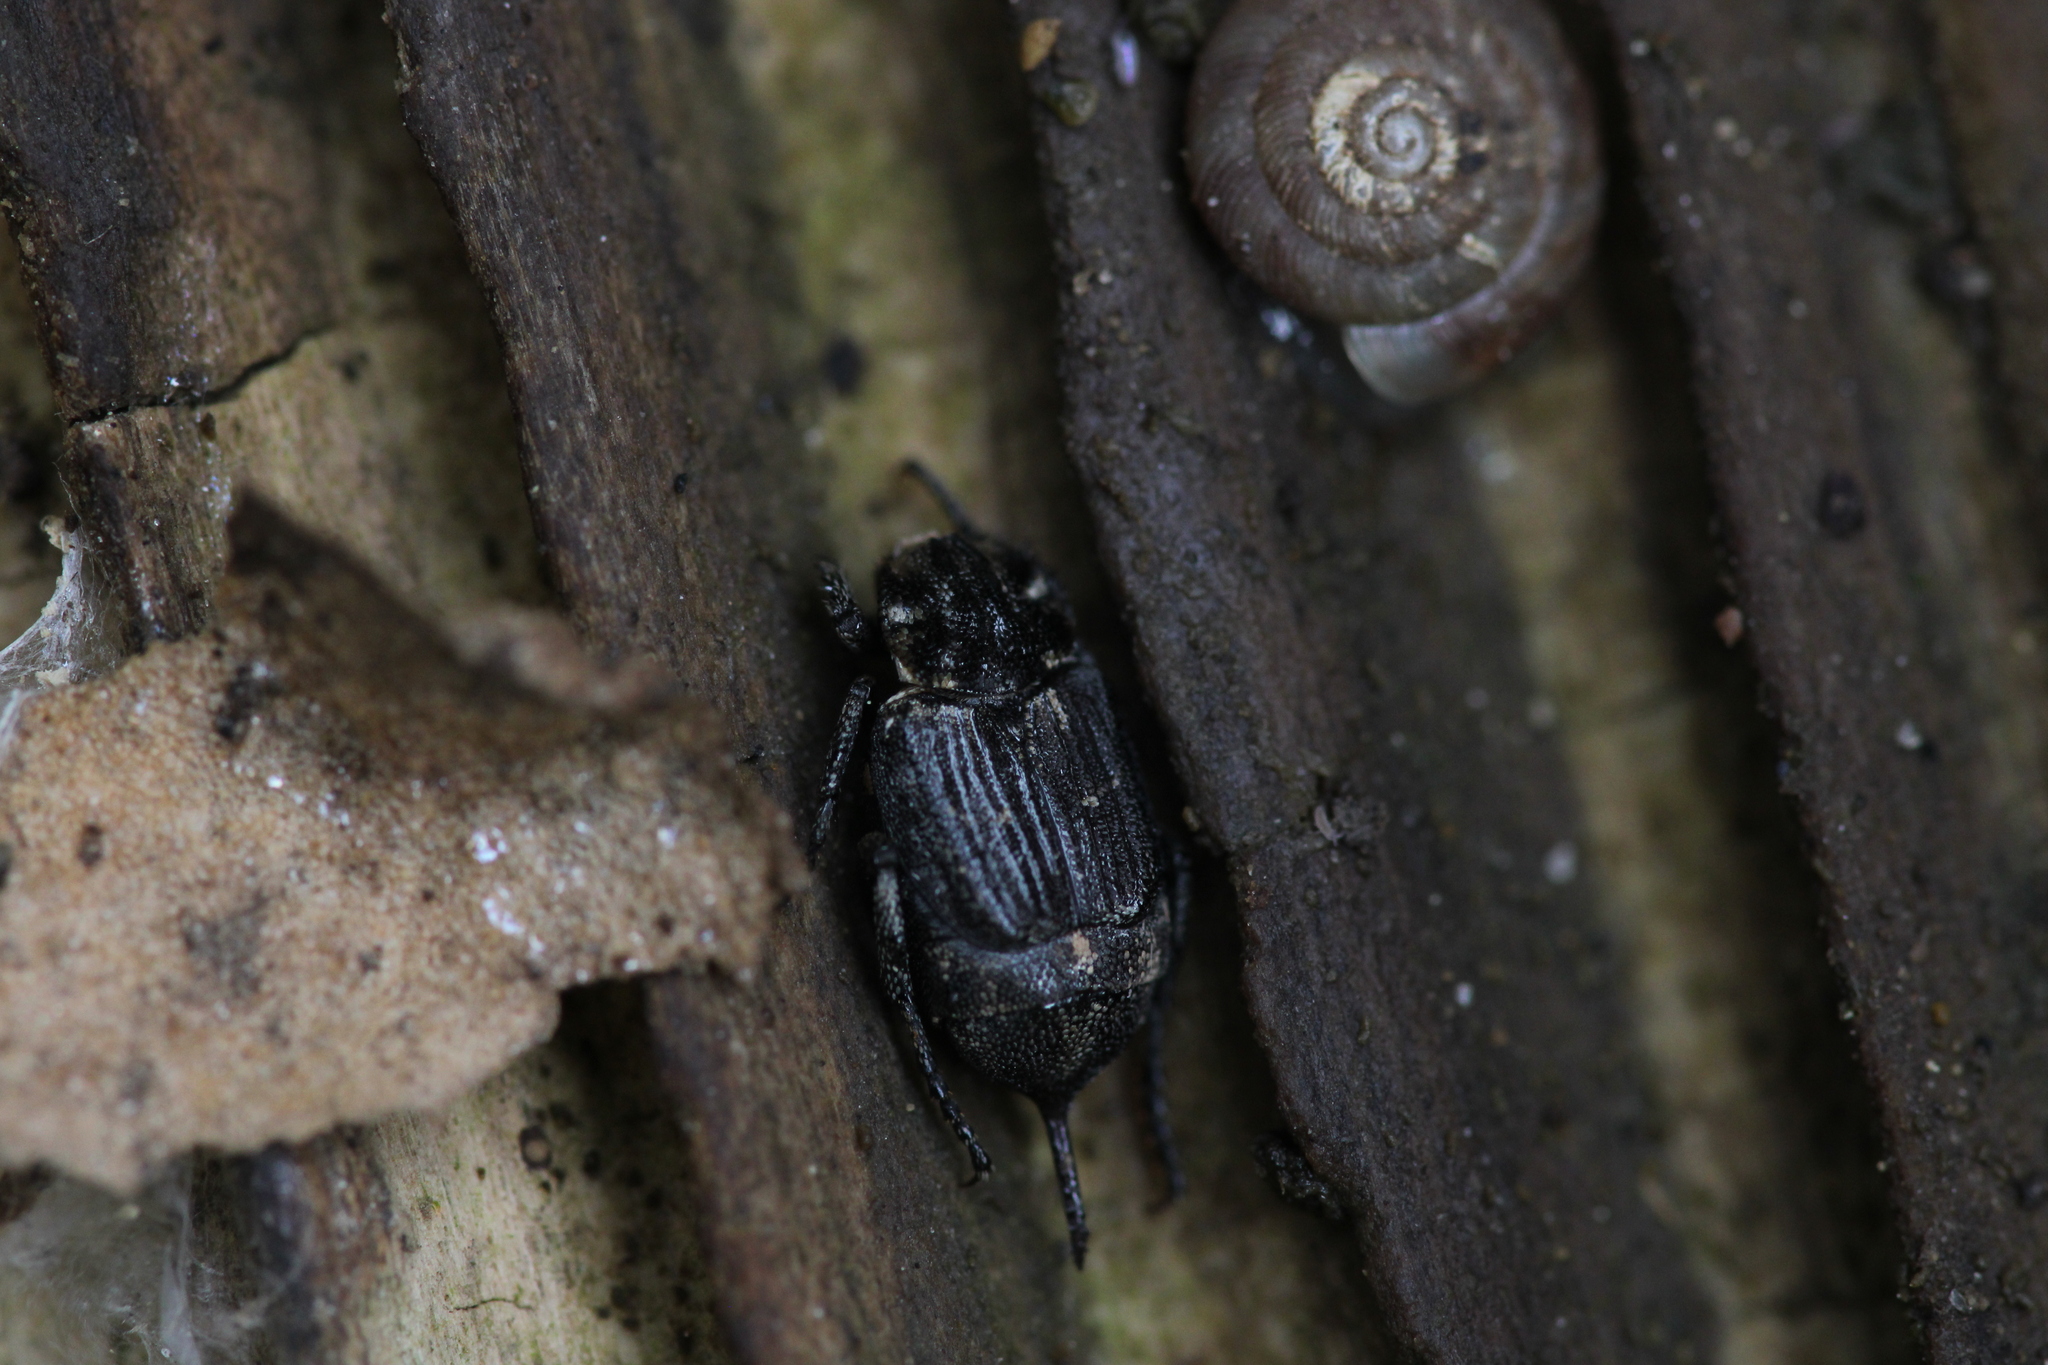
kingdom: Animalia
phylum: Arthropoda
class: Insecta
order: Coleoptera
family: Scarabaeidae
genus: Valgus
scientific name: Valgus hemipterus
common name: Bug flower chafer
